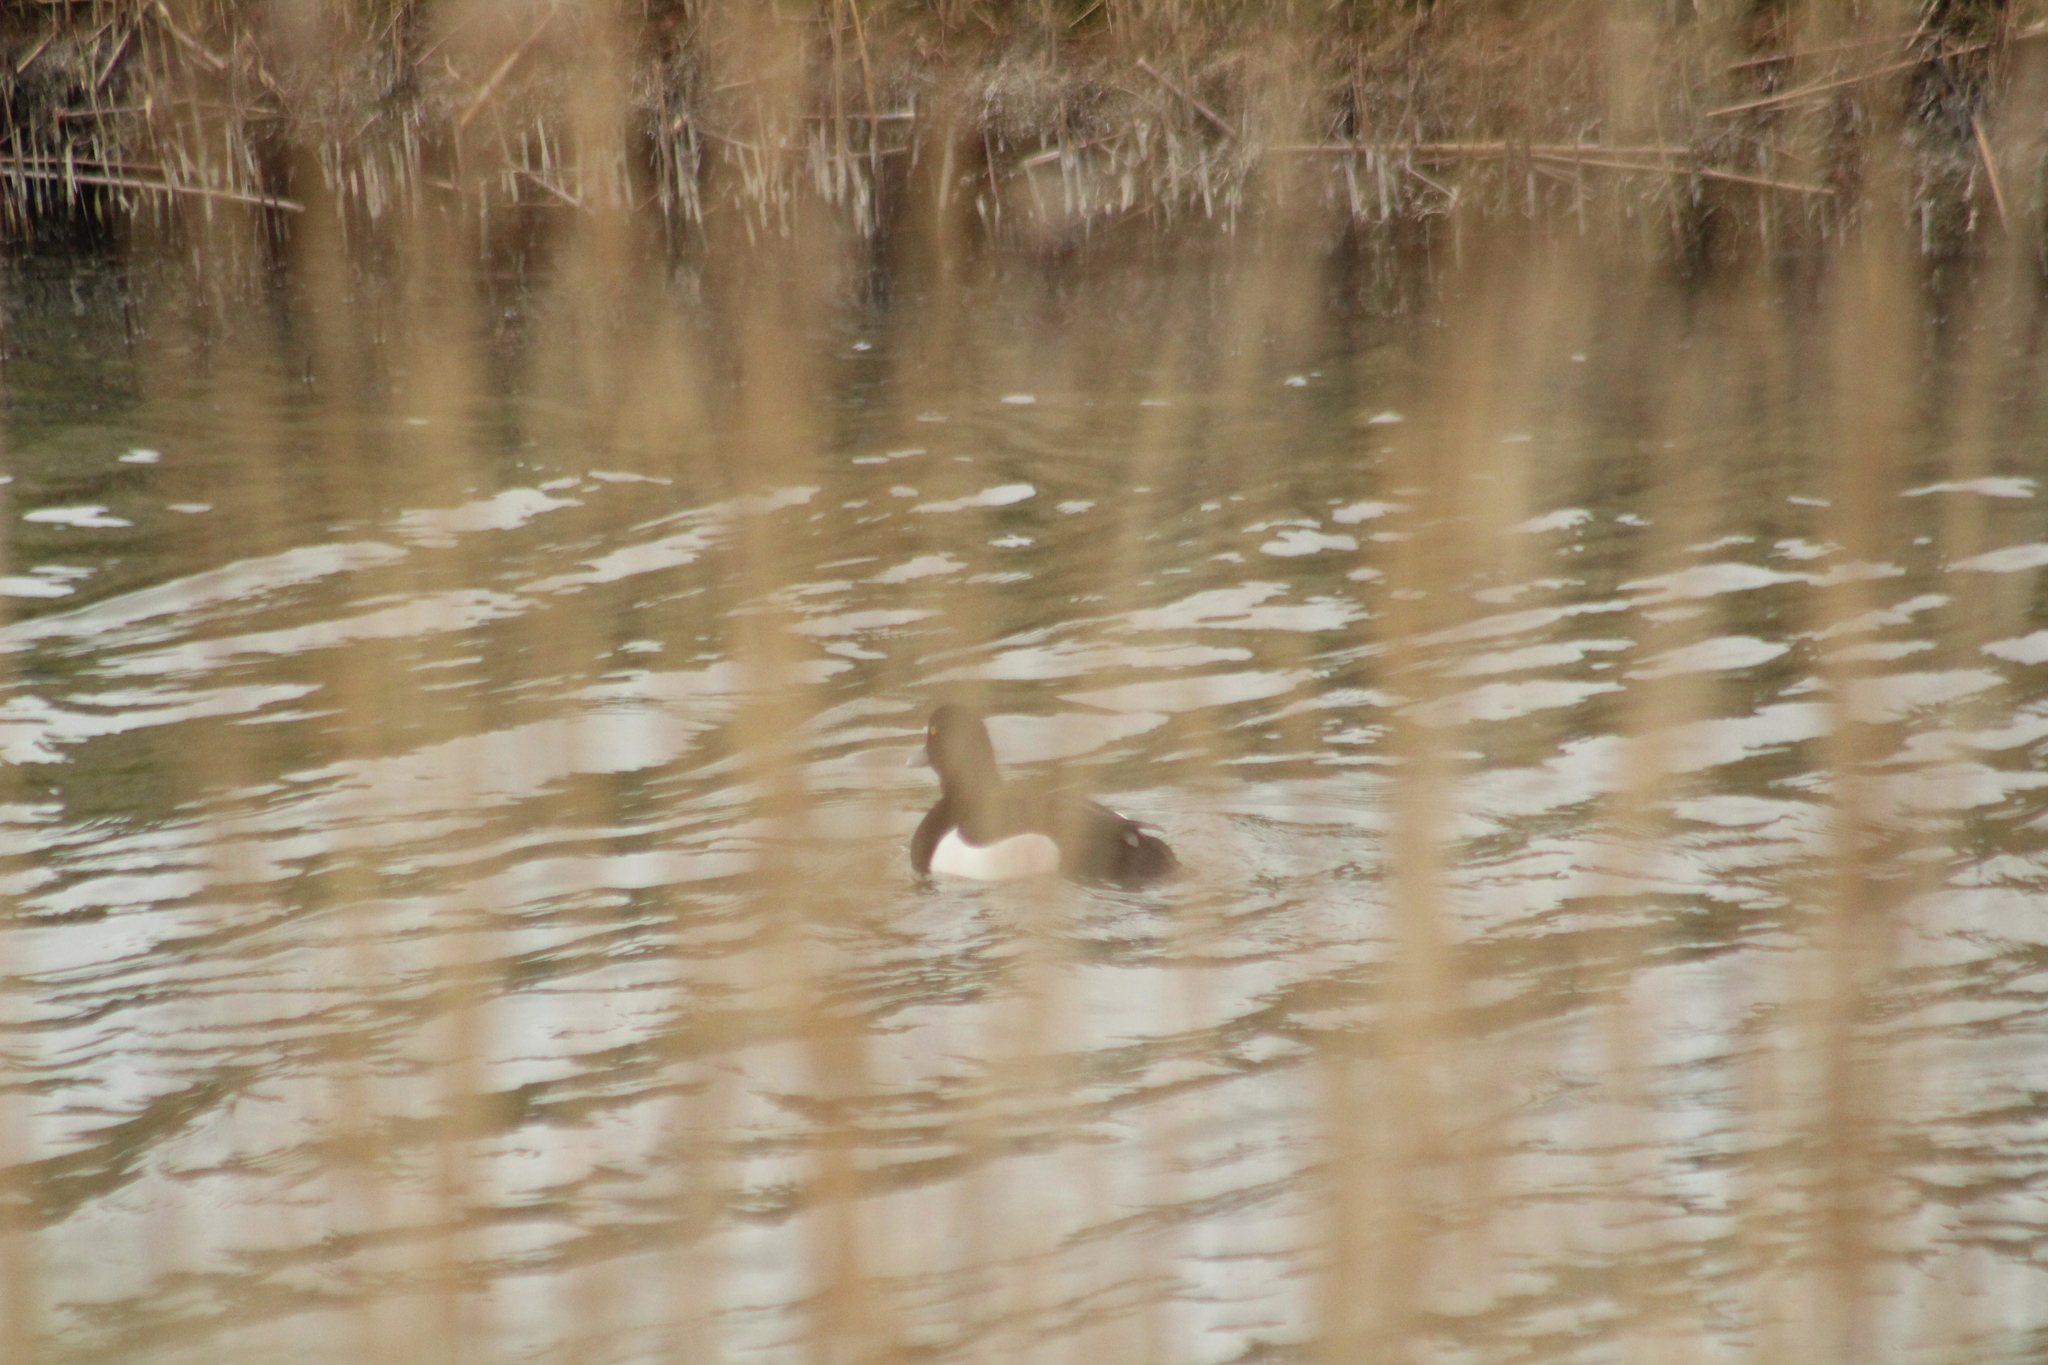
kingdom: Animalia
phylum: Chordata
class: Aves
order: Anseriformes
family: Anatidae
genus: Aythya
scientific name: Aythya fuligula
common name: Tufted duck
